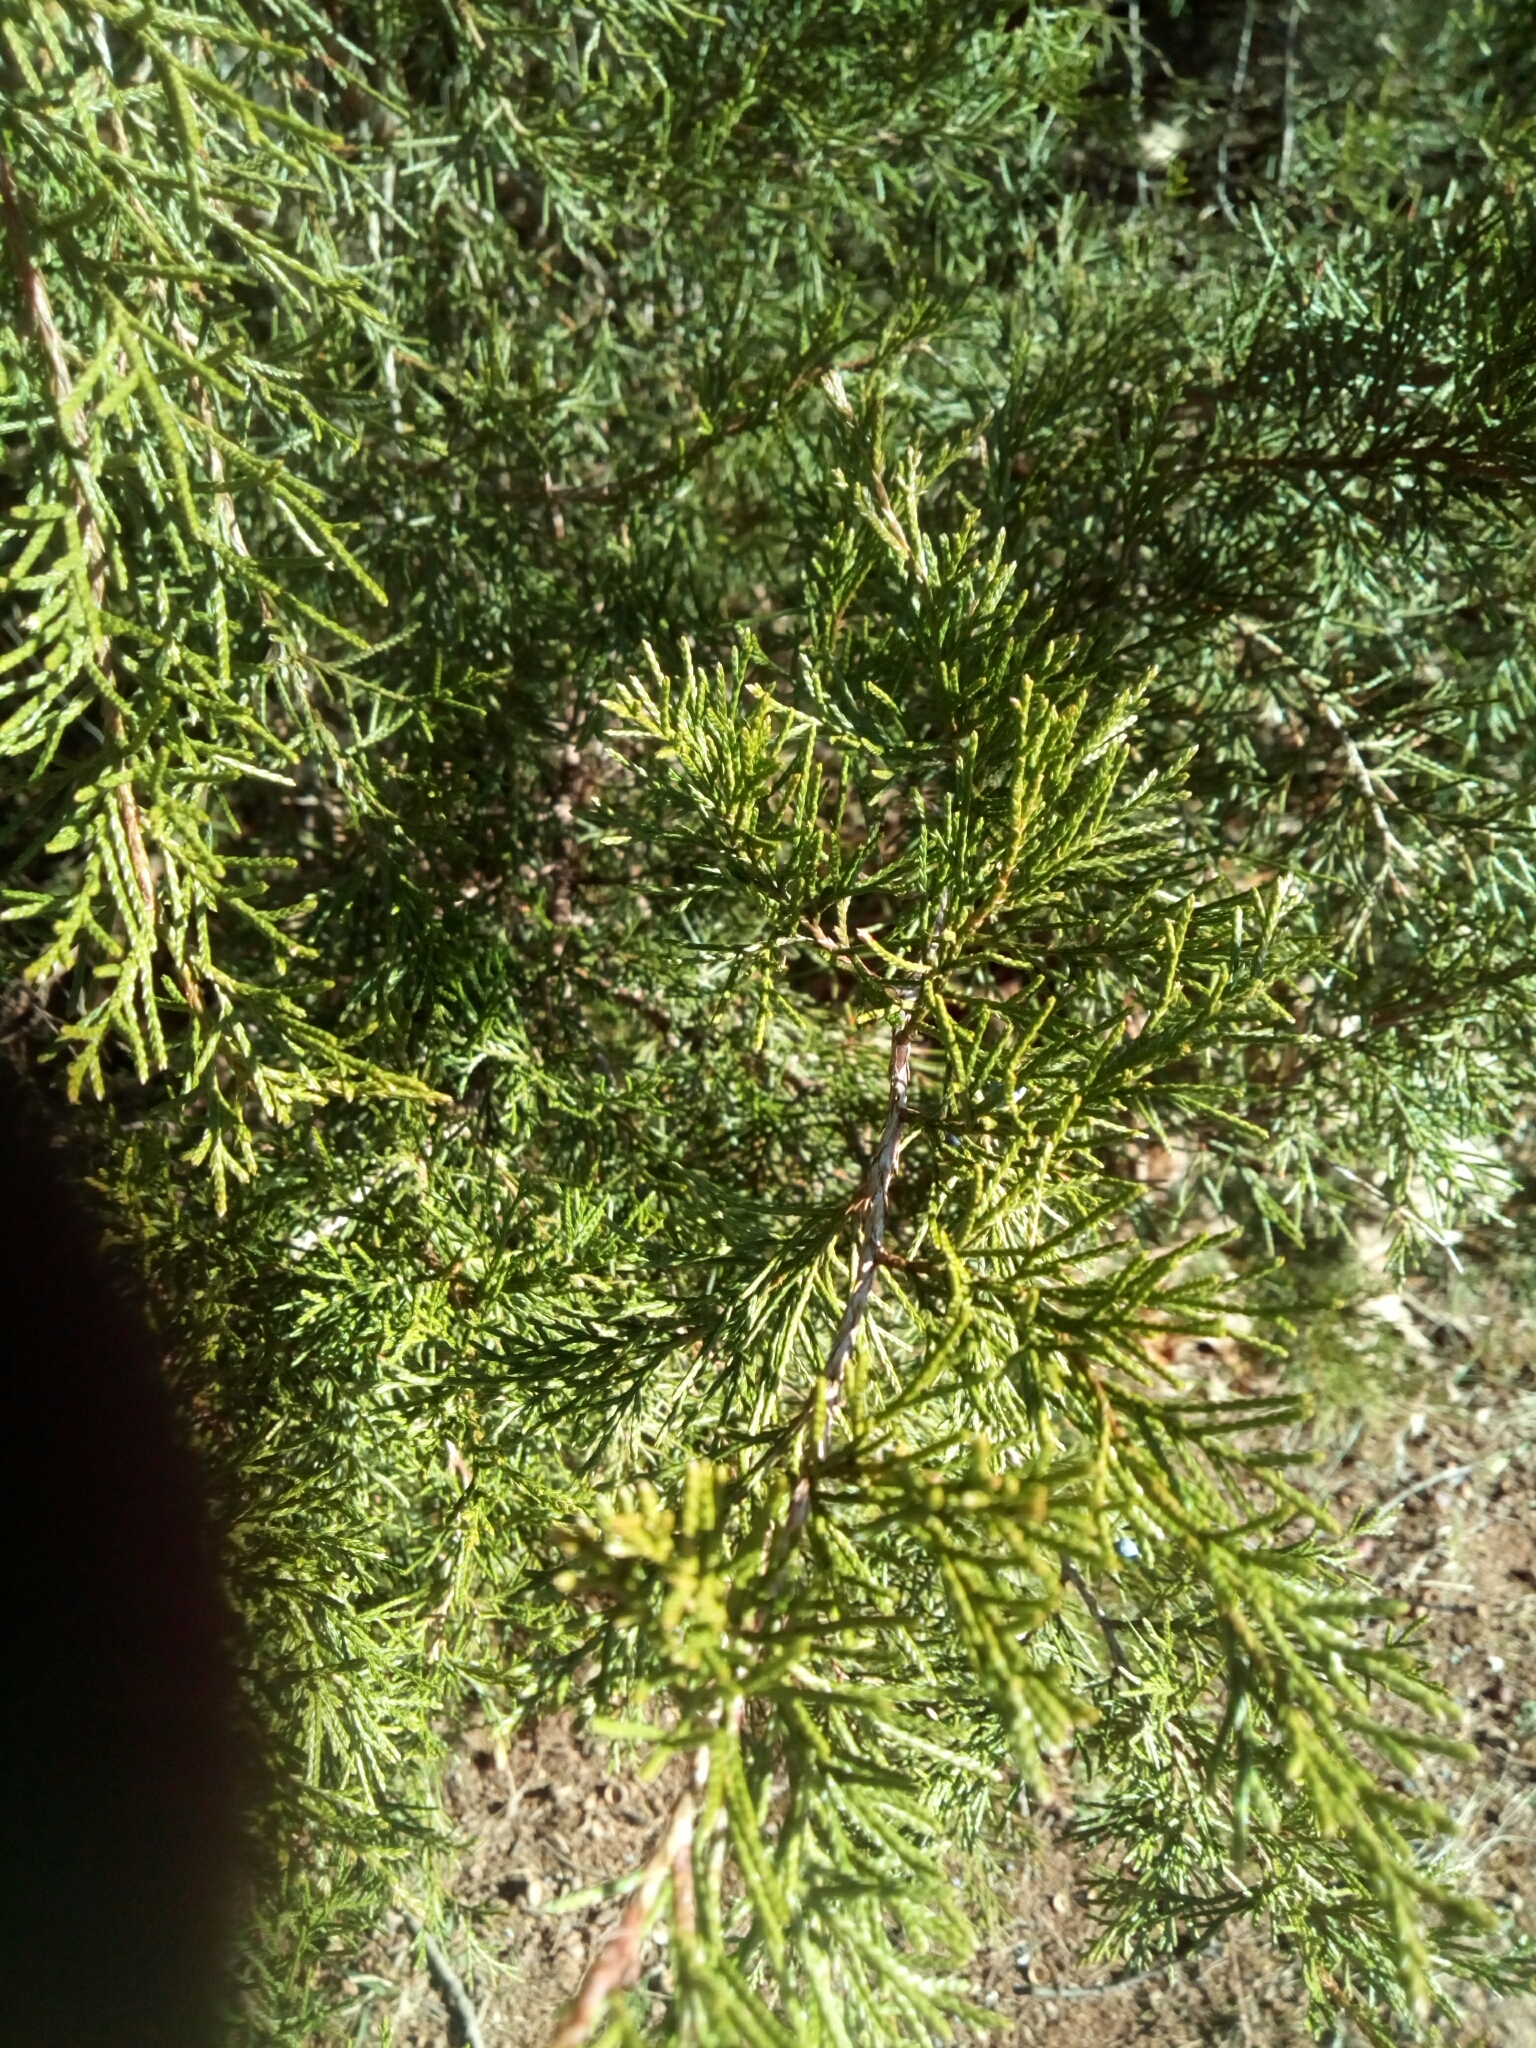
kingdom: Plantae
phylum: Tracheophyta
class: Pinopsida
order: Pinales
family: Cupressaceae
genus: Juniperus
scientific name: Juniperus virginiana
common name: Red juniper
